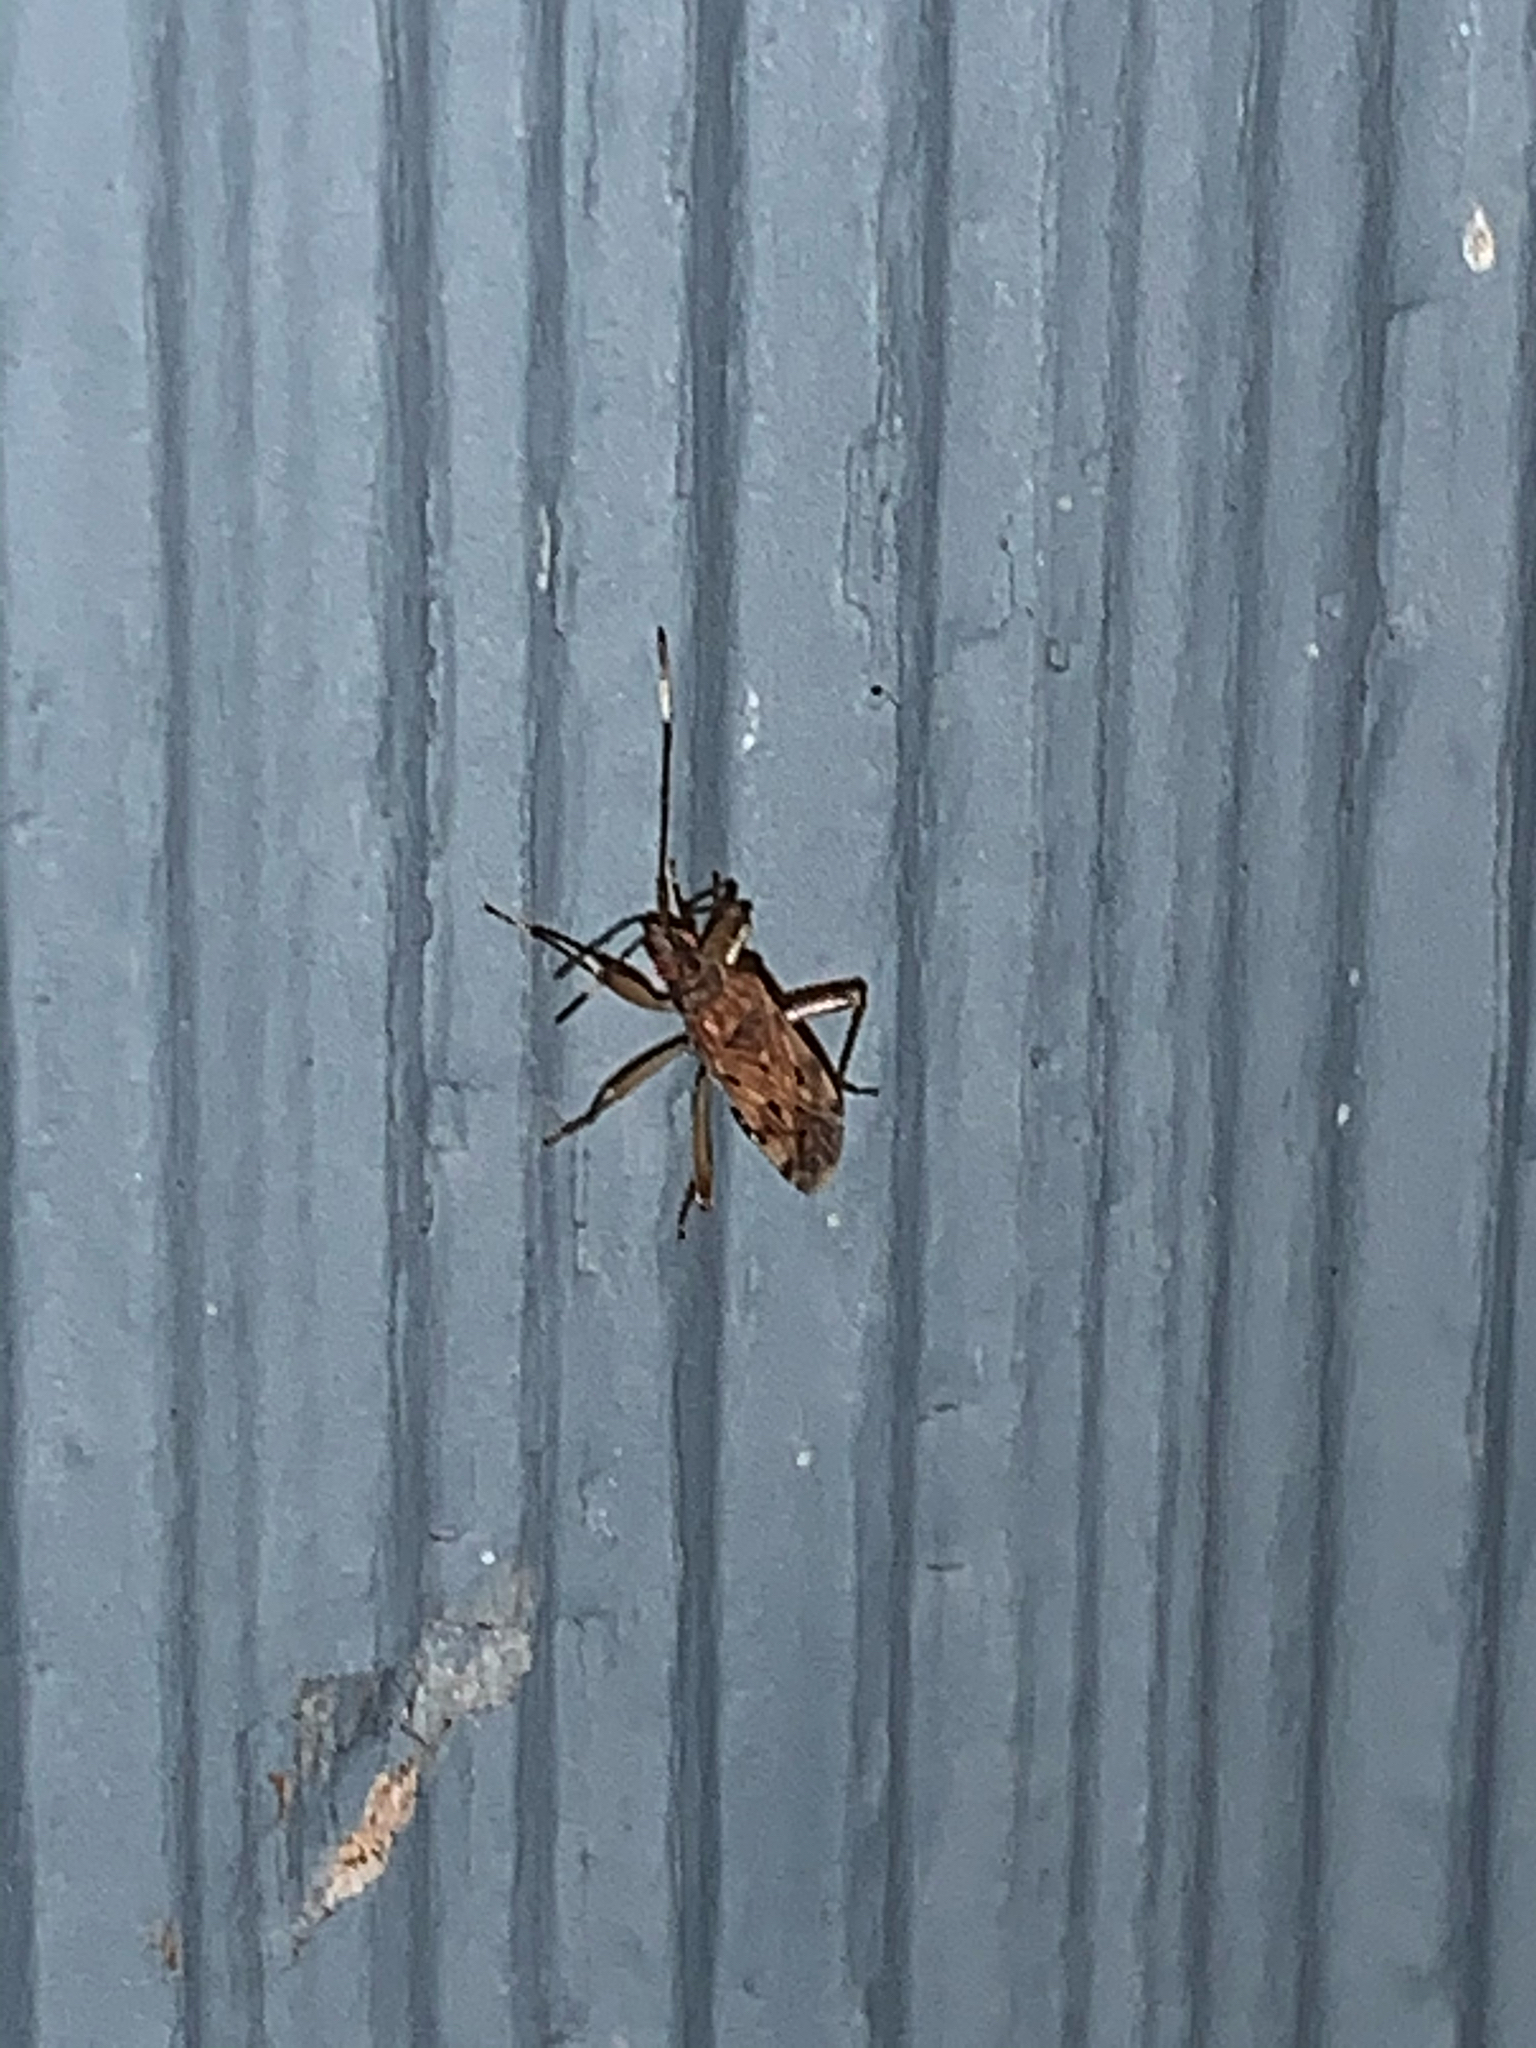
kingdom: Animalia
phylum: Arthropoda
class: Insecta
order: Hemiptera
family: Rhyparochromidae
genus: Ozophora
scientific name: Ozophora picturata
